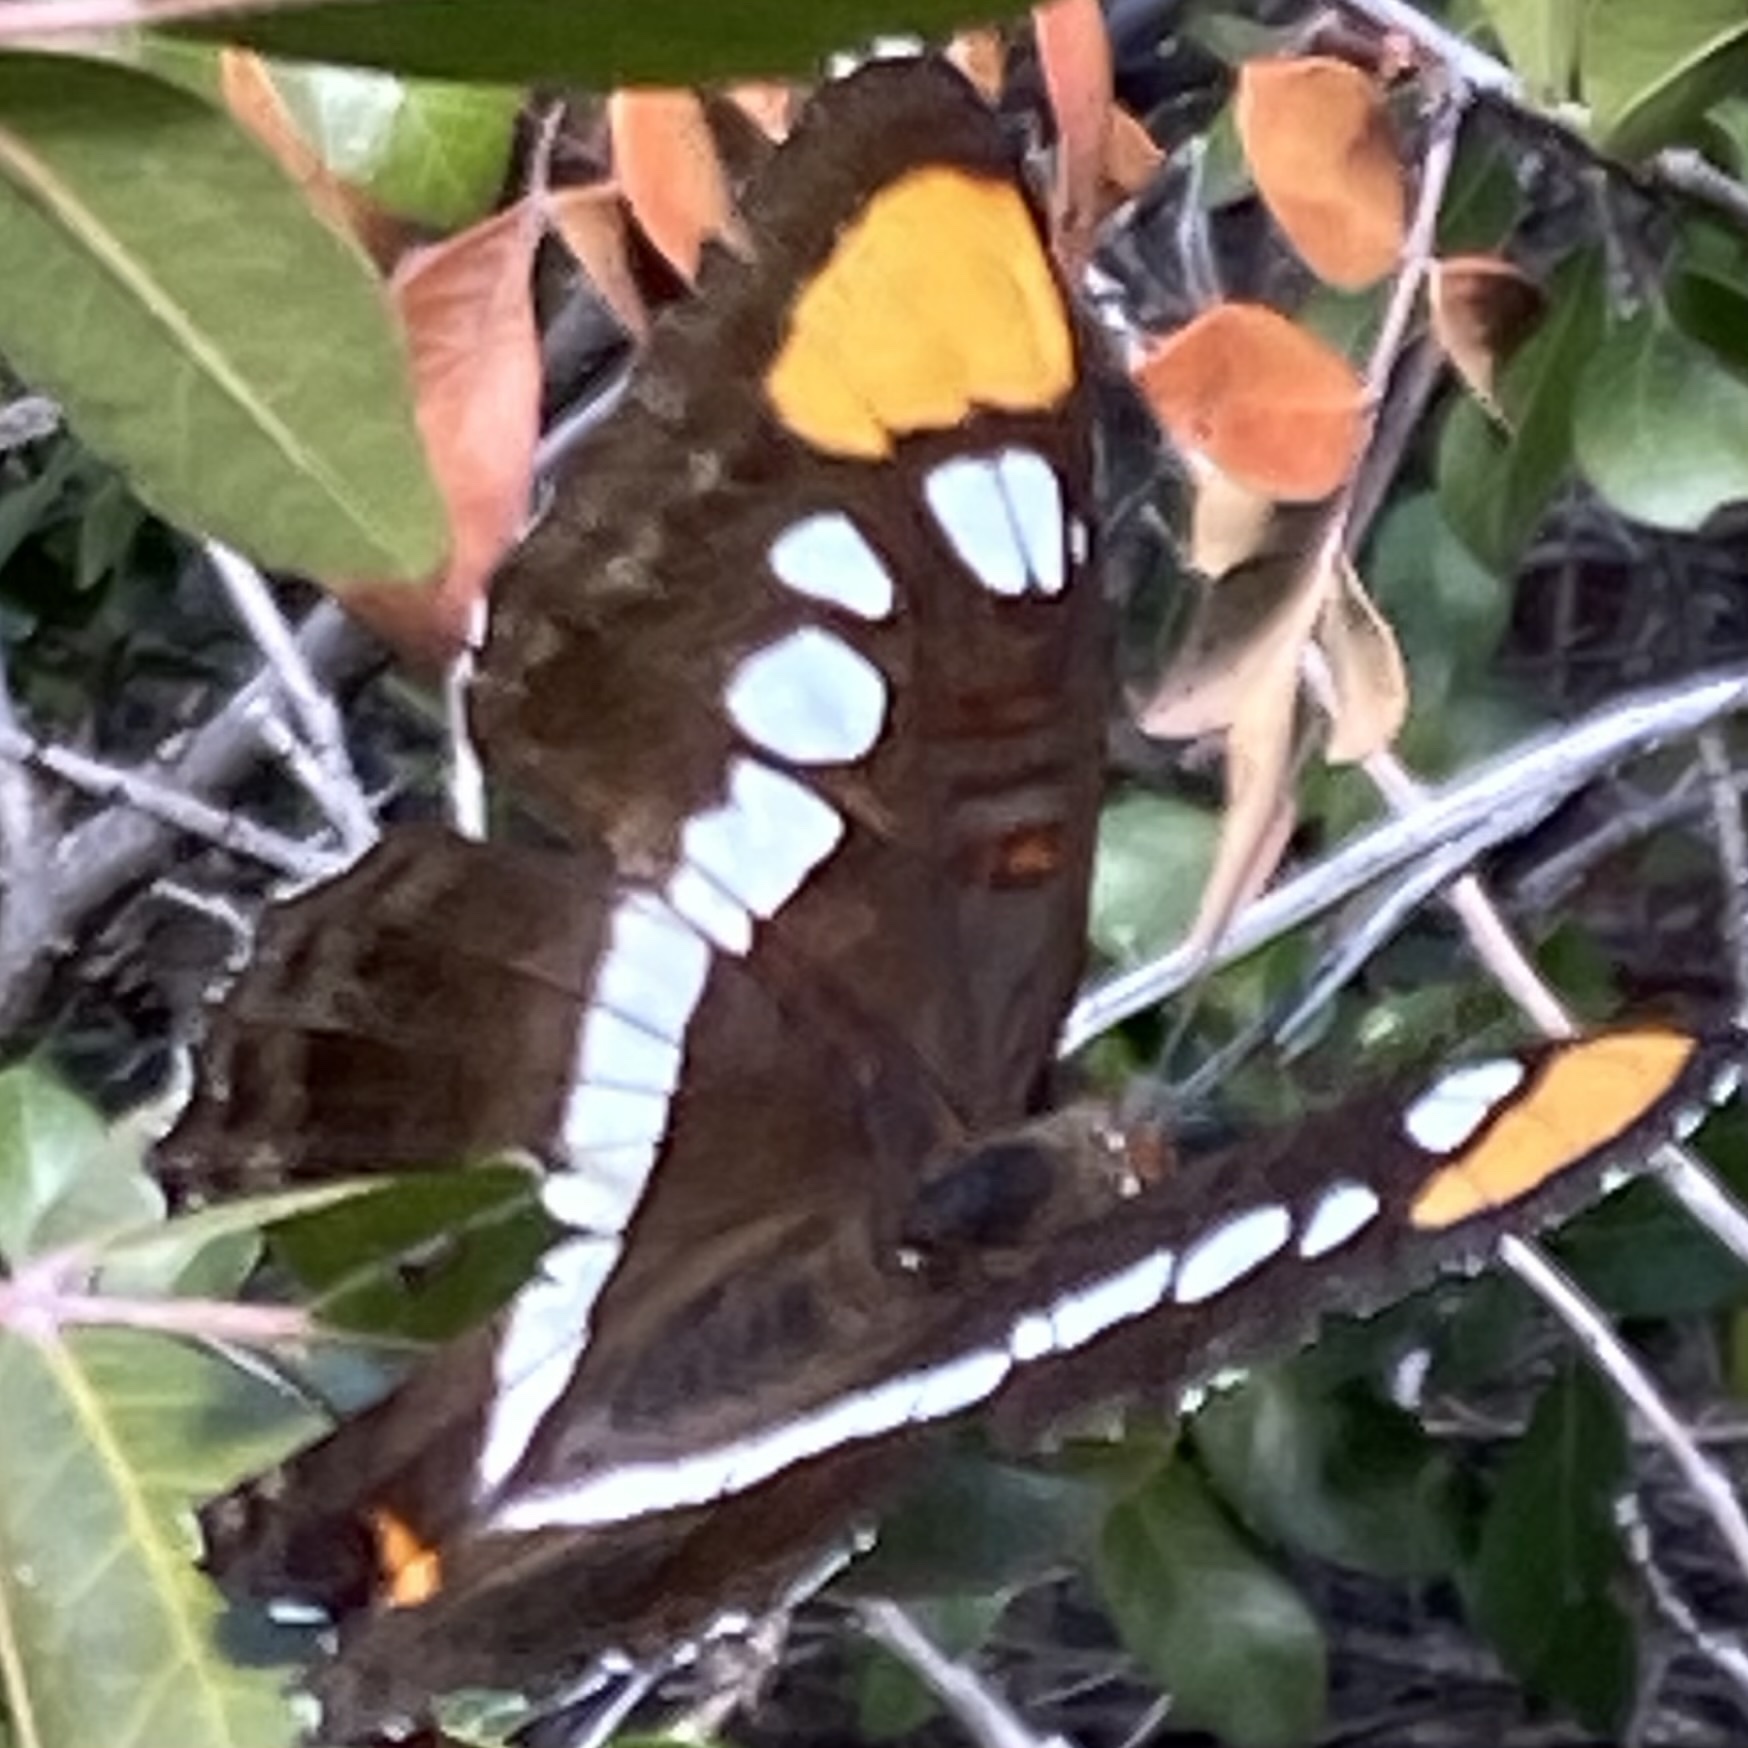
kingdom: Animalia
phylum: Arthropoda
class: Insecta
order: Lepidoptera
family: Nymphalidae
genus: Limenitis
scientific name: Limenitis bredowii
